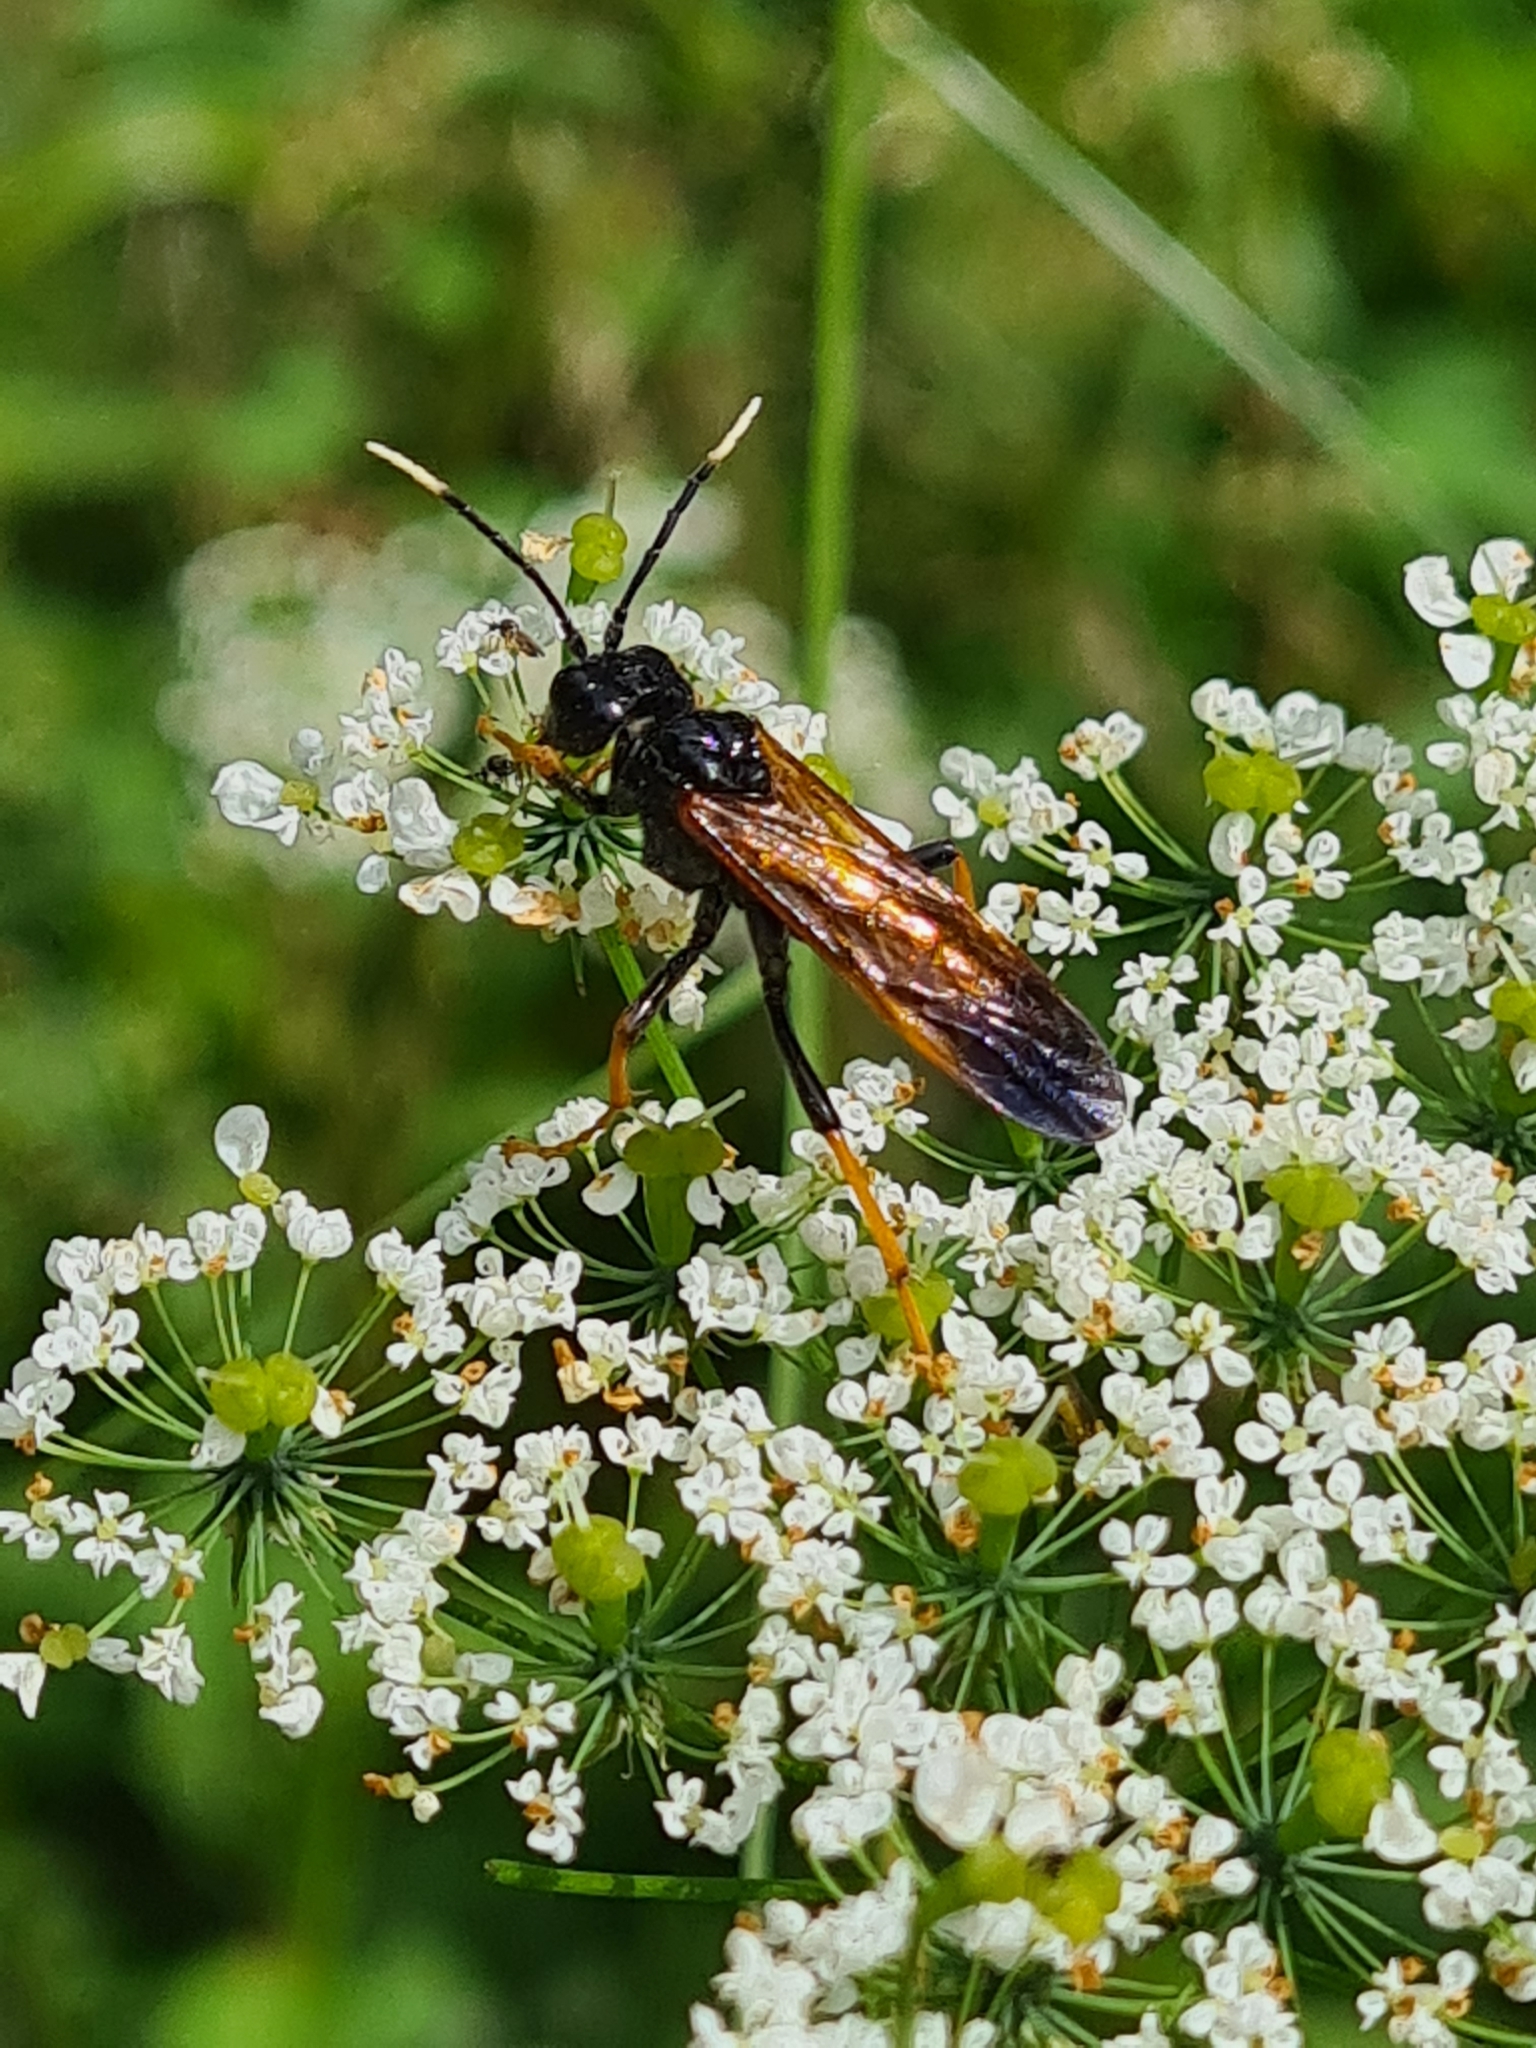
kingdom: Animalia
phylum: Arthropoda
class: Insecta
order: Hymenoptera
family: Tenthredinidae
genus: Tenthredo
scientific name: Tenthredo crassa
